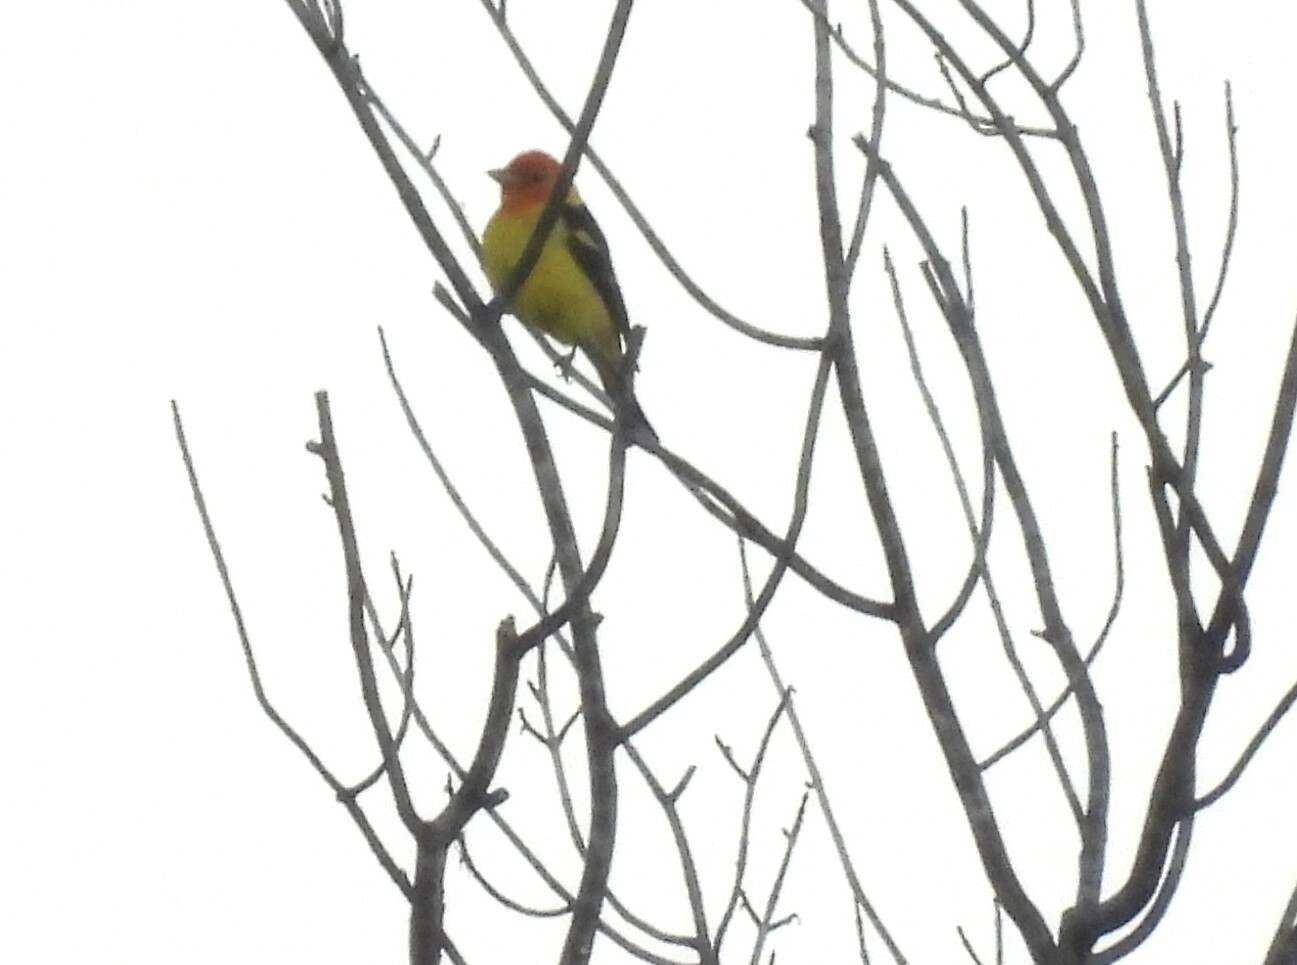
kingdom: Animalia
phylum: Chordata
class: Aves
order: Passeriformes
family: Cardinalidae
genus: Piranga
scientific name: Piranga ludoviciana
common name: Western tanager
